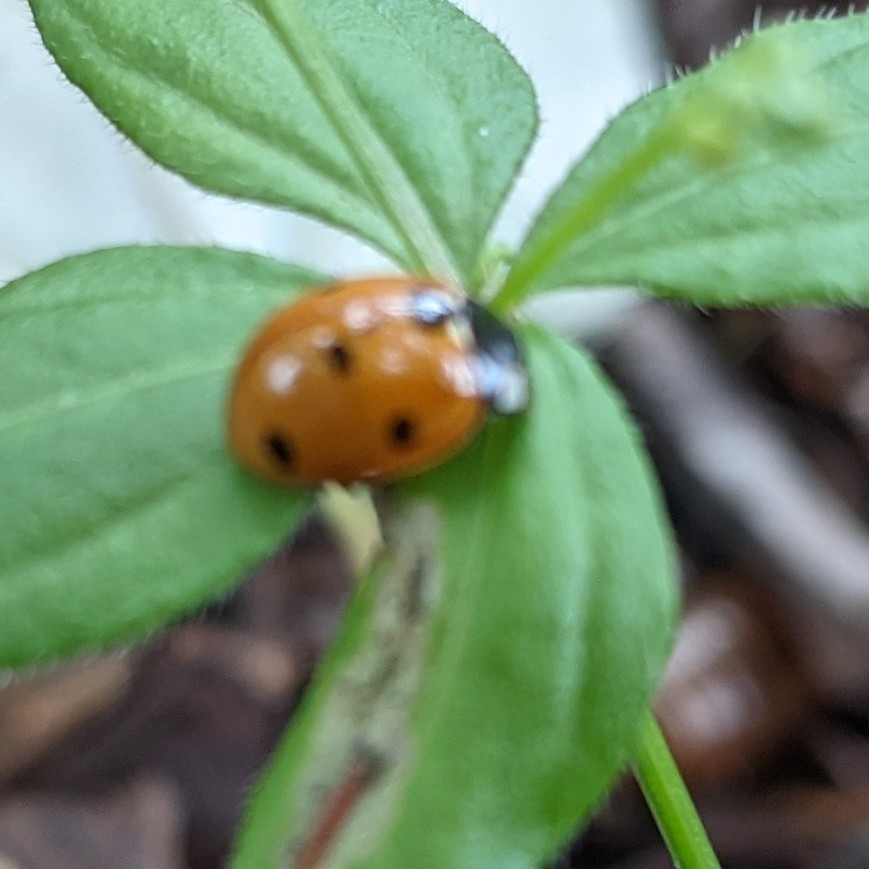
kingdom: Animalia
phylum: Arthropoda
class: Insecta
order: Coleoptera
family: Coccinellidae
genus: Coccinella
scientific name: Coccinella septempunctata
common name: Sevenspotted lady beetle
